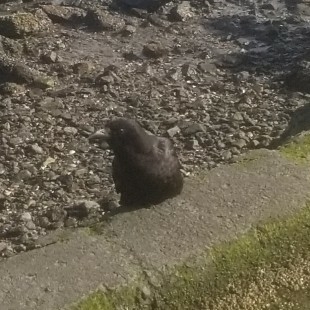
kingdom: Animalia
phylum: Chordata
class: Aves
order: Passeriformes
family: Corvidae
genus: Corvus
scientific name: Corvus brachyrhynchos
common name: American crow
